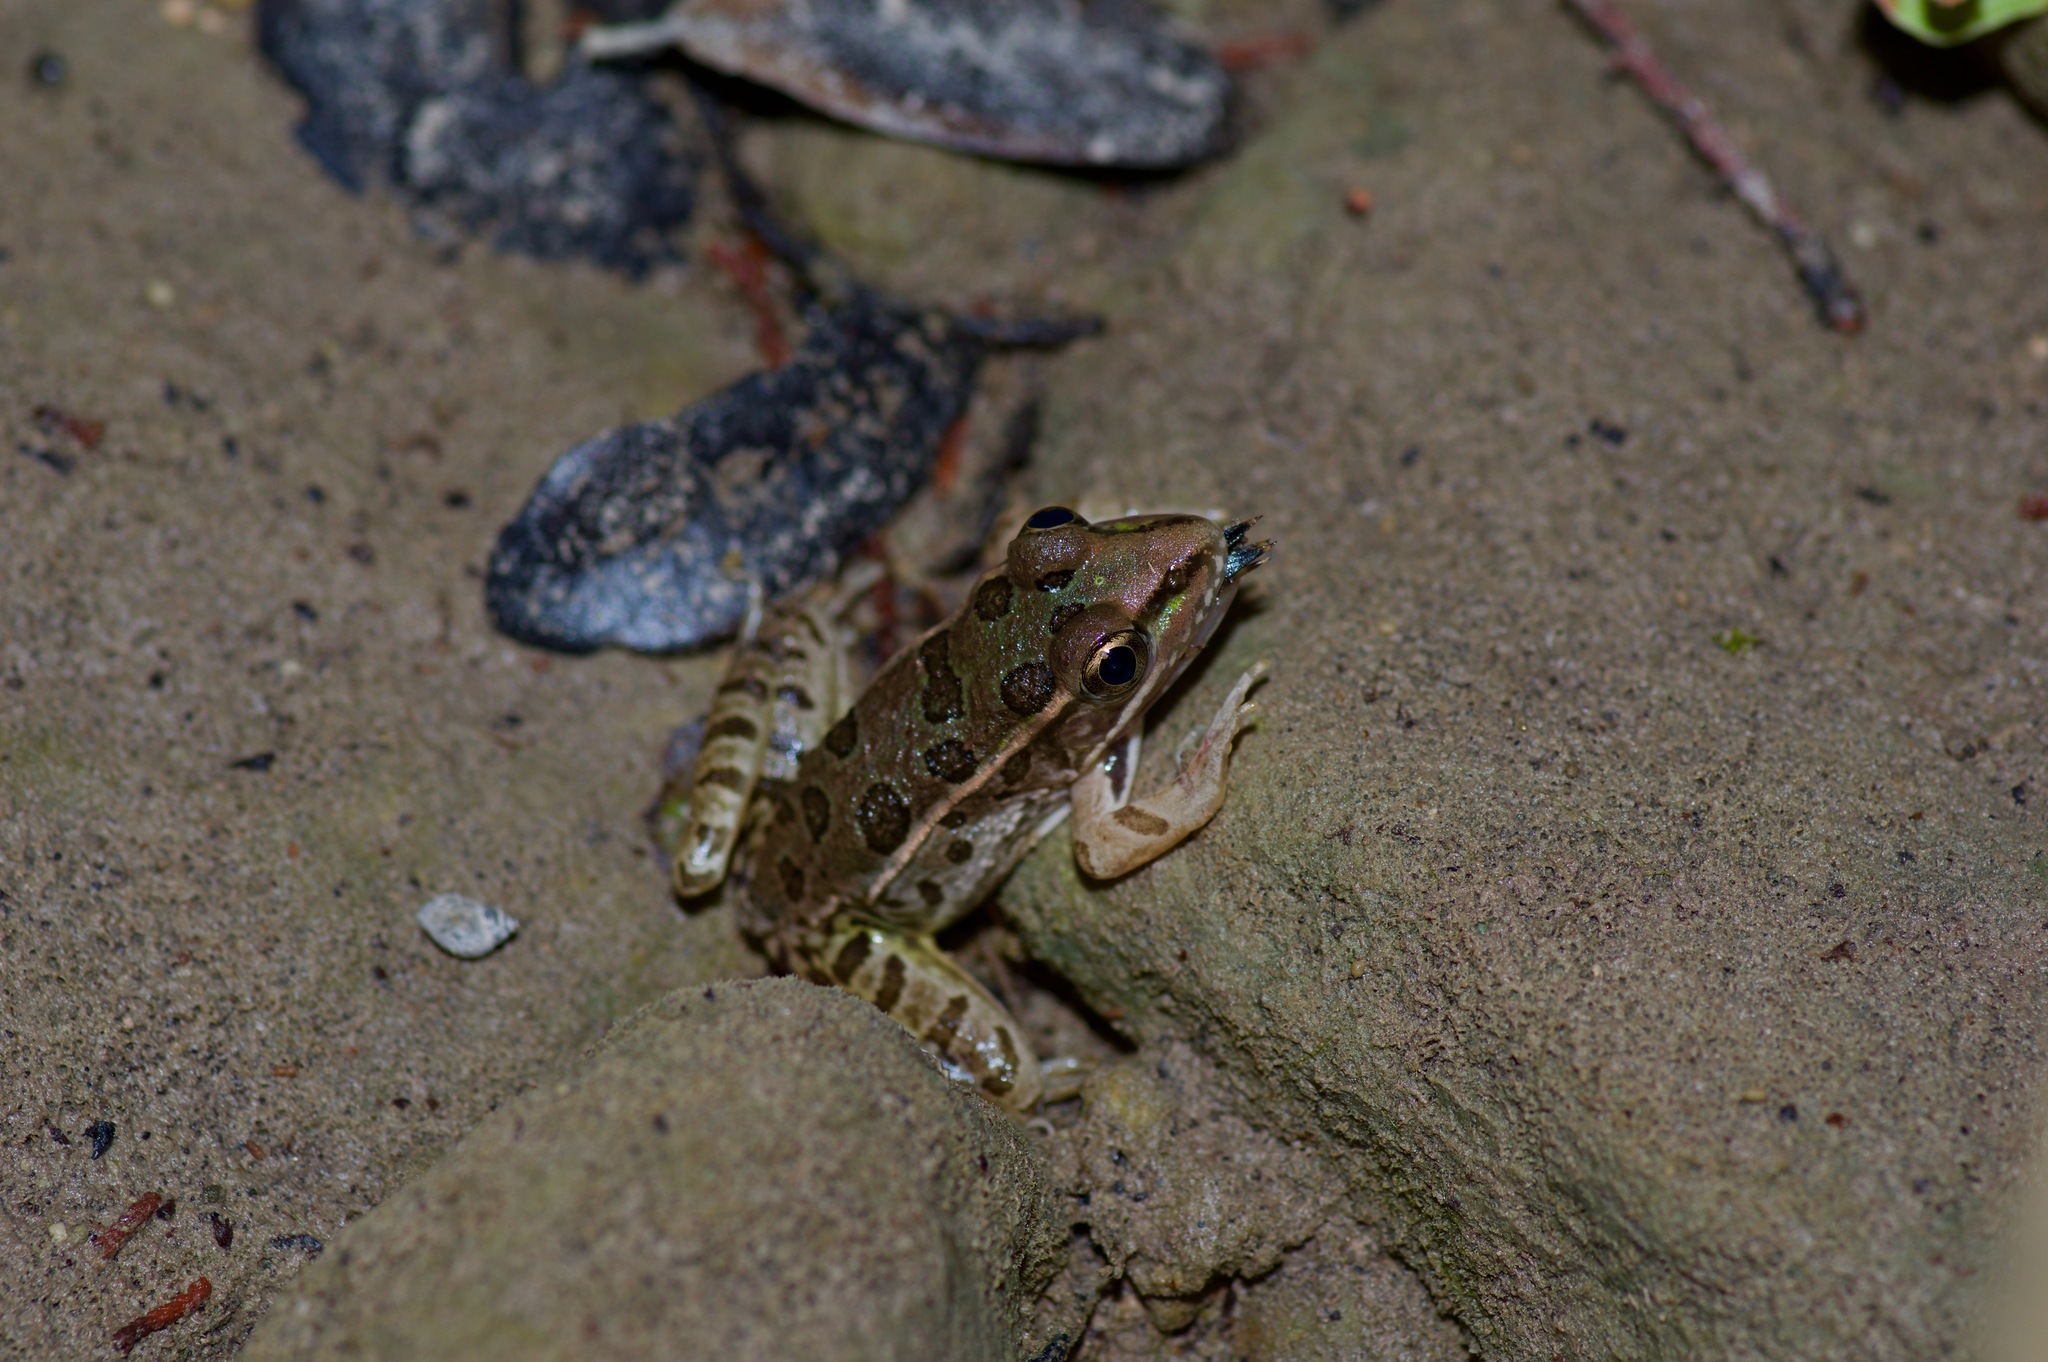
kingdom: Animalia
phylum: Chordata
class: Amphibia
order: Anura
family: Ranidae
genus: Lithobates
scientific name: Lithobates berlandieri
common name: Rio grande leopard frog
